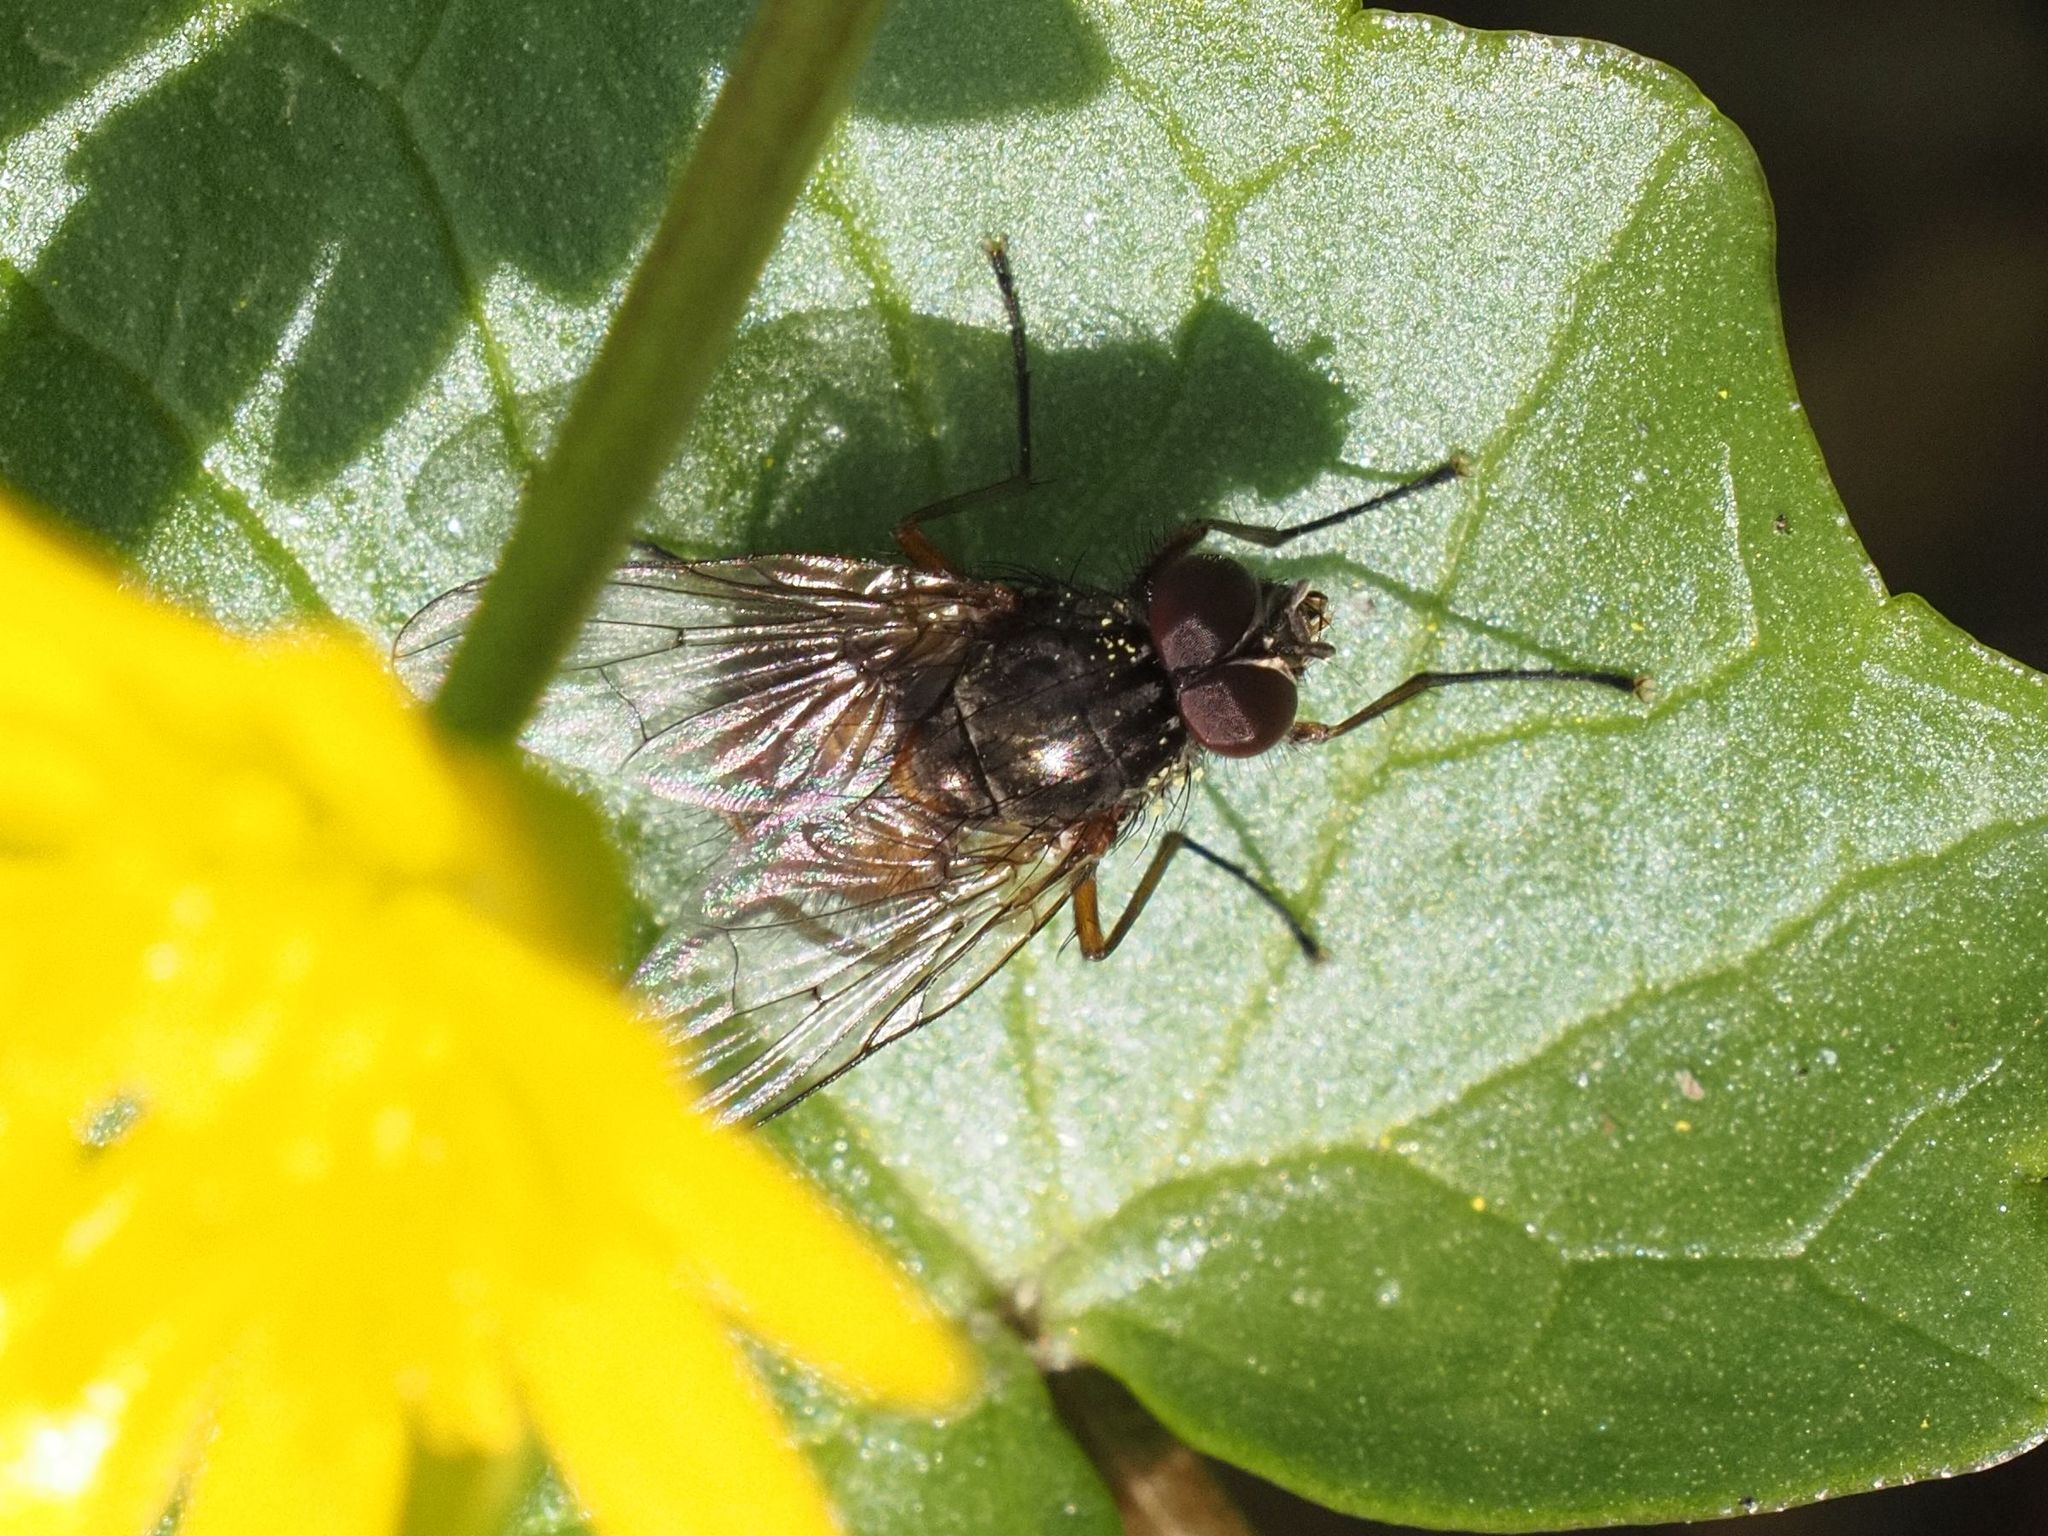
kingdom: Animalia
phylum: Arthropoda
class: Insecta
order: Diptera
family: Muscidae
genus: Phaonia
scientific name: Phaonia subventa
